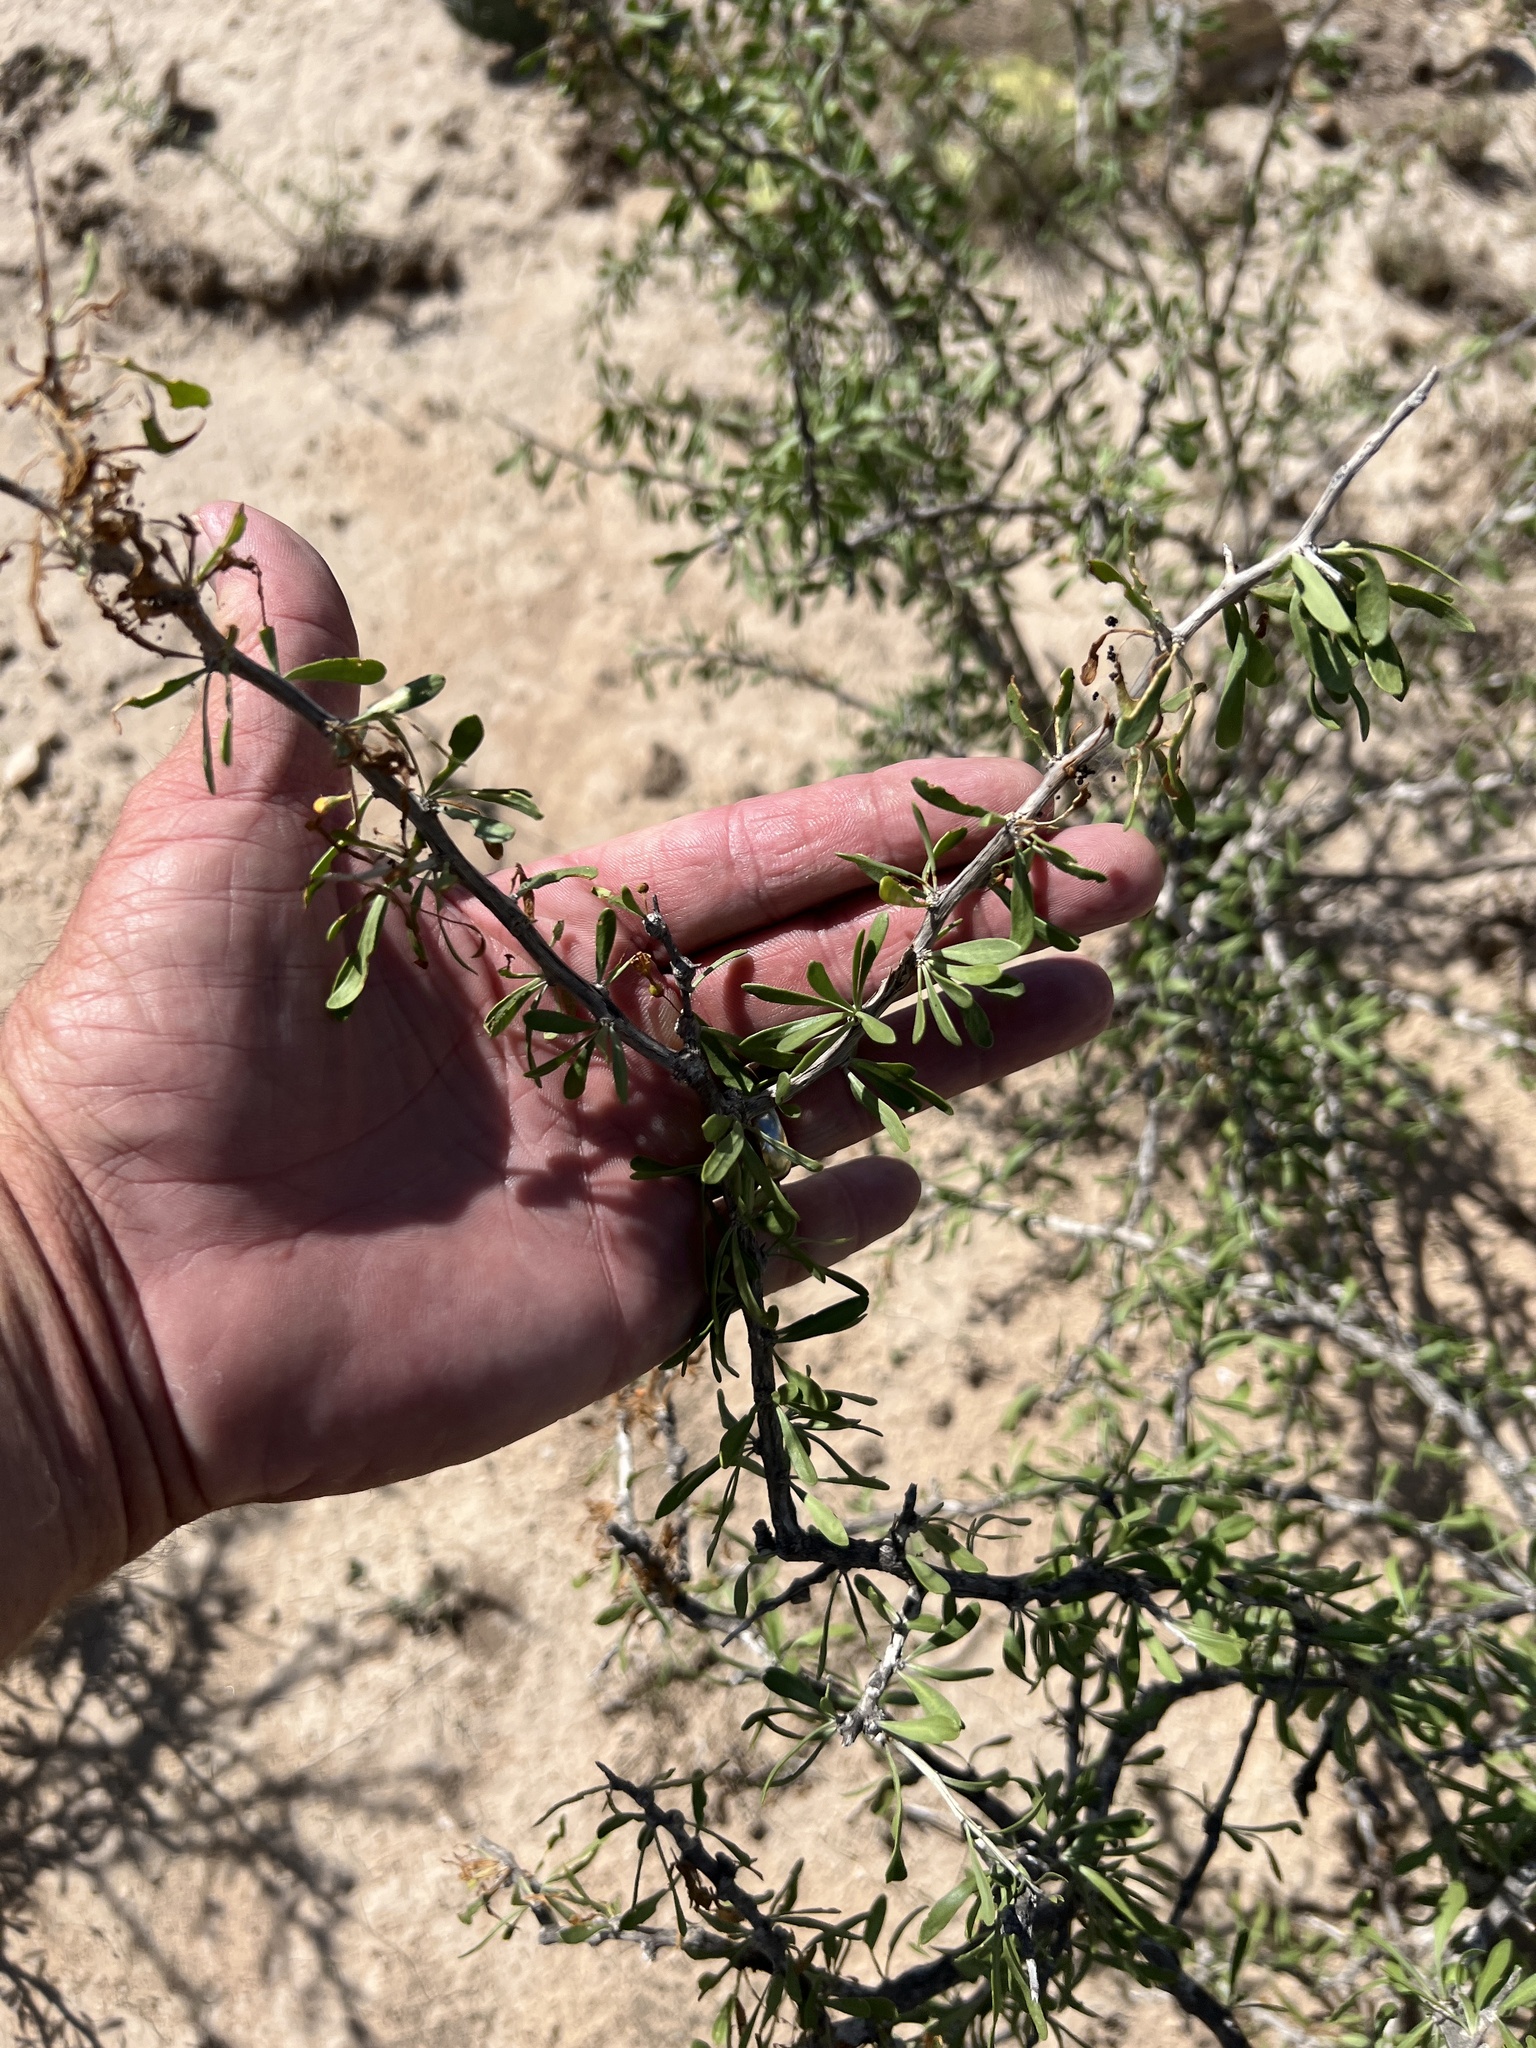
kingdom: Plantae
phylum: Tracheophyta
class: Magnoliopsida
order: Solanales
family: Solanaceae
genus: Lycium
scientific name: Lycium berlandieri
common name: Berlandier wolfberry
